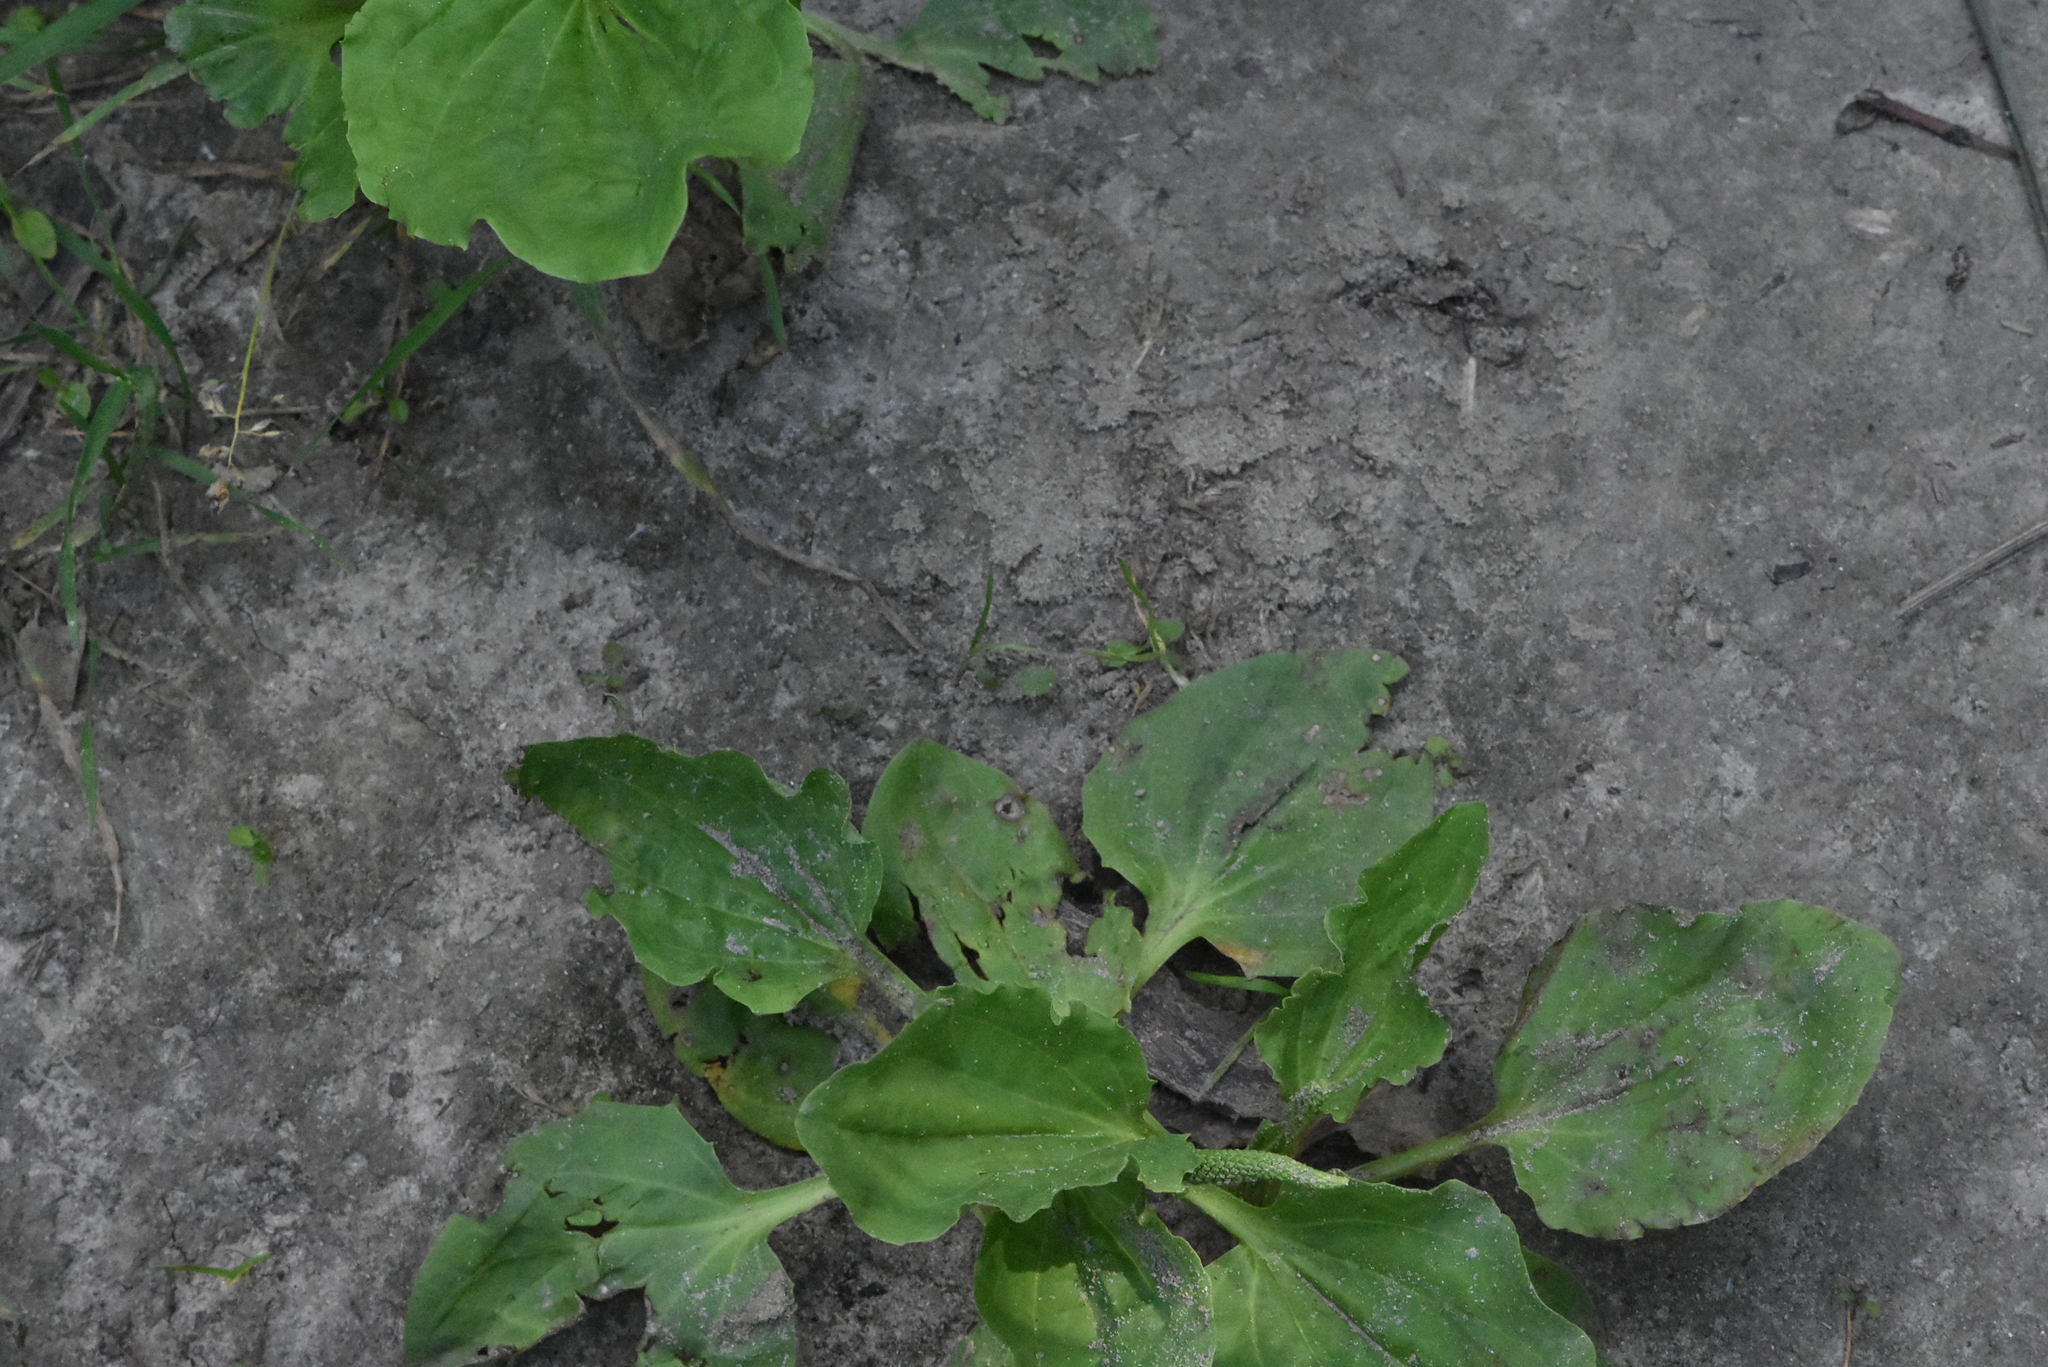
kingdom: Plantae
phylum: Tracheophyta
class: Magnoliopsida
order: Lamiales
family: Plantaginaceae
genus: Plantago
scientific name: Plantago major
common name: Common plantain
